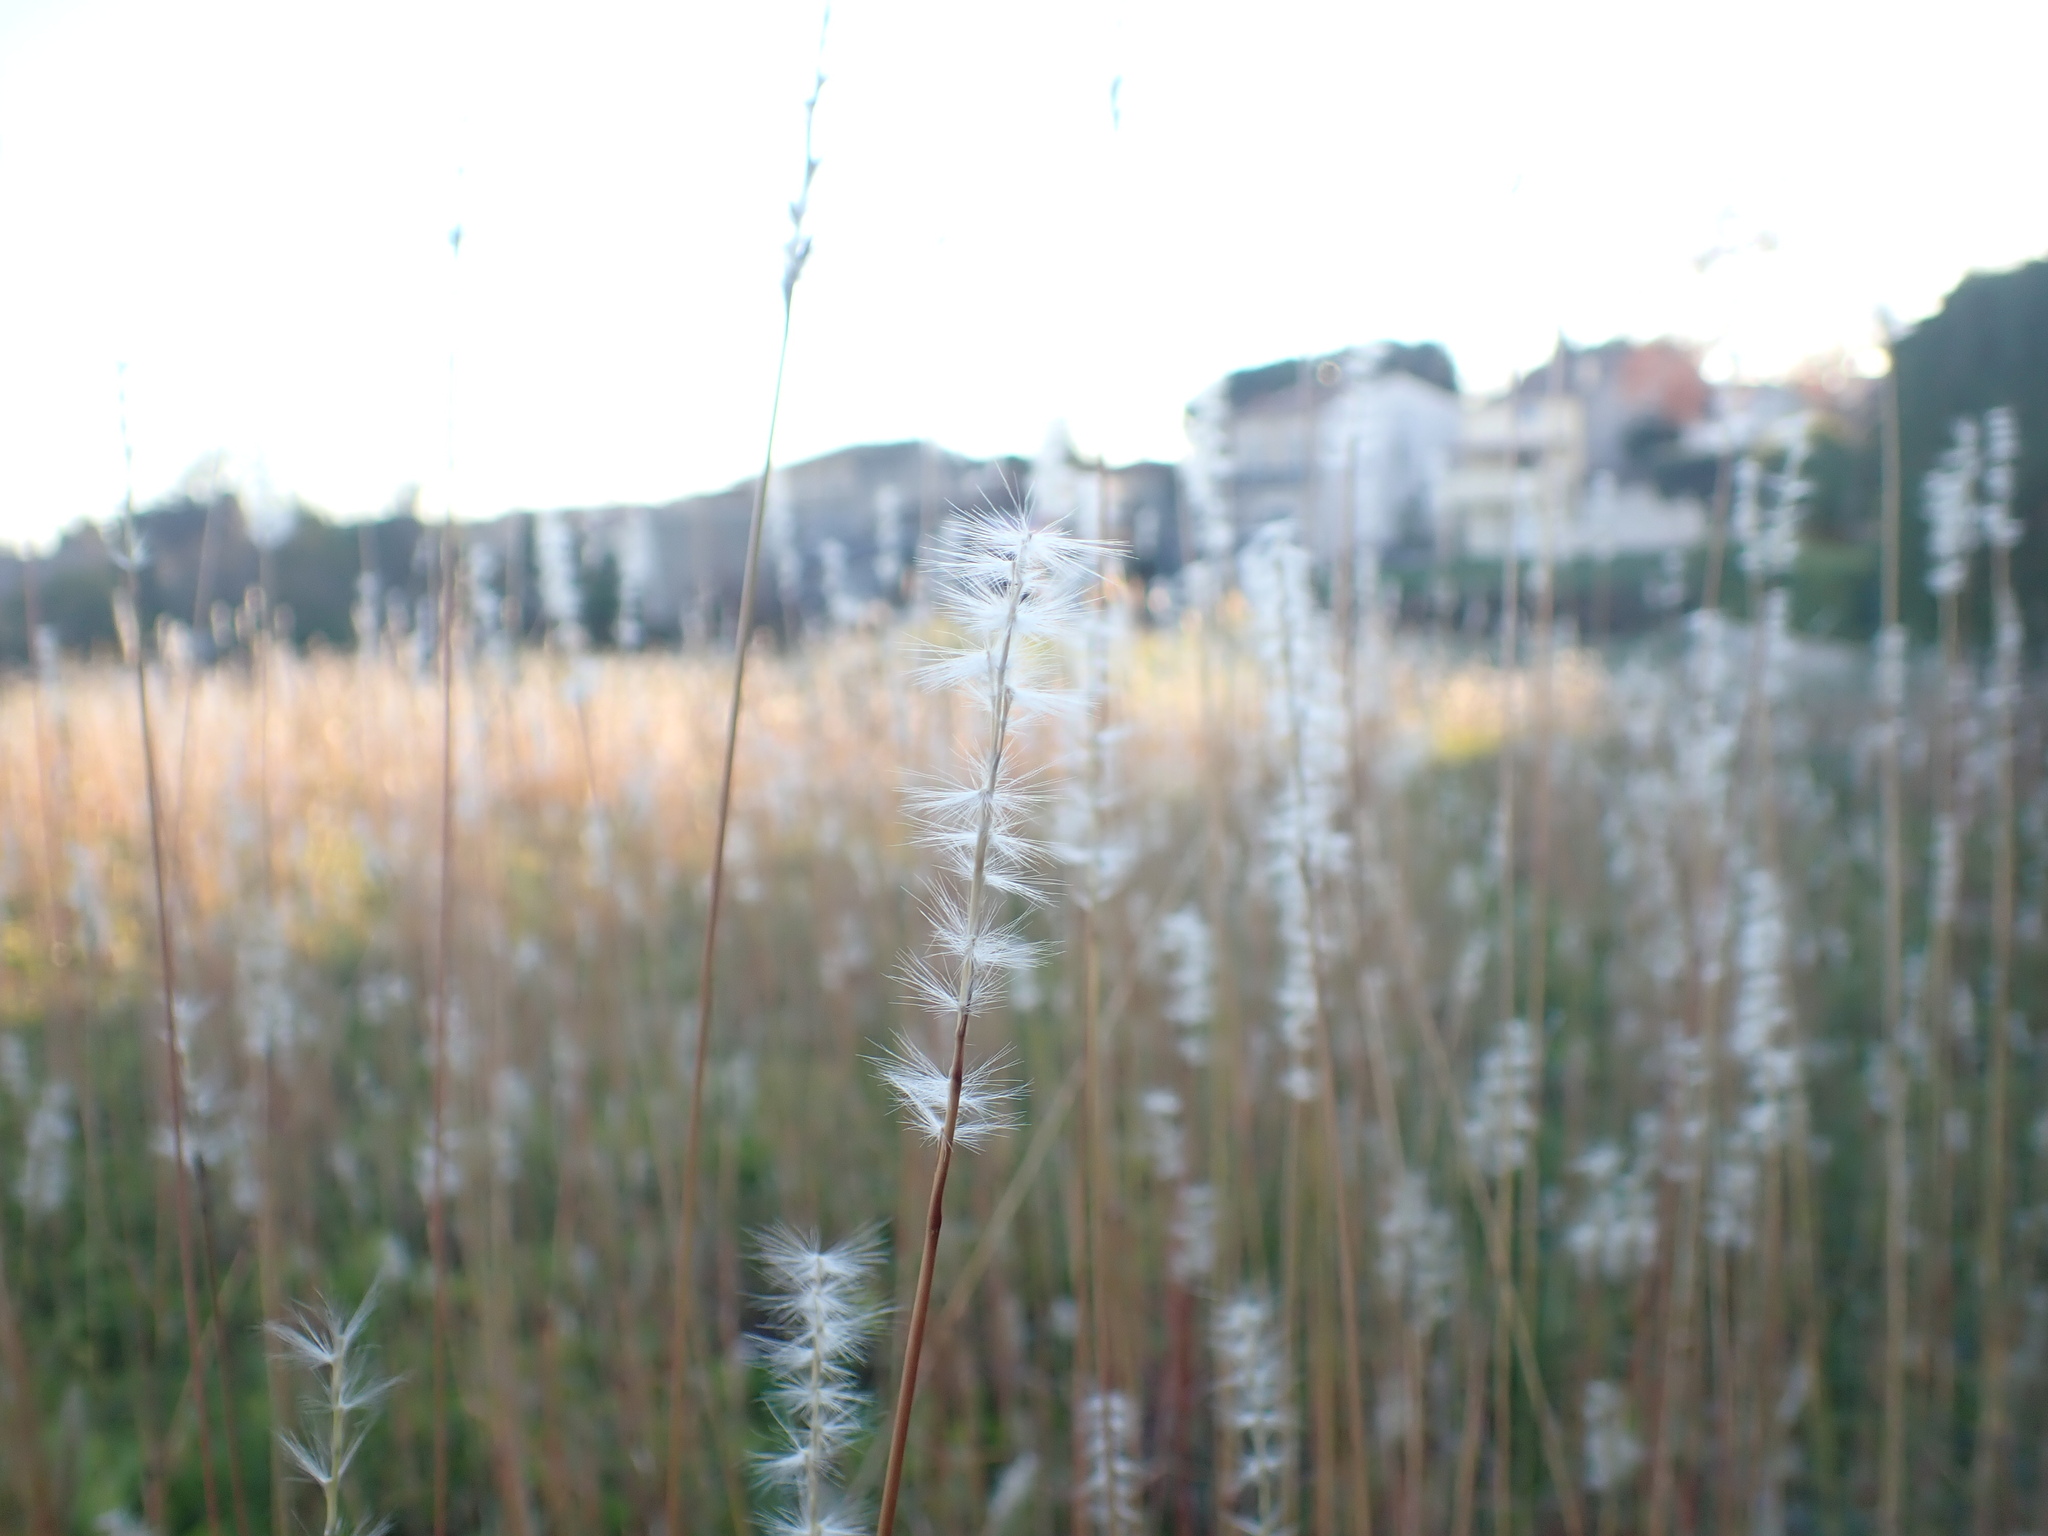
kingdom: Plantae
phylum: Tracheophyta
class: Liliopsida
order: Poales
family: Poaceae
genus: Bothriochloa
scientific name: Bothriochloa barbinodis
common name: Cane bluestem
